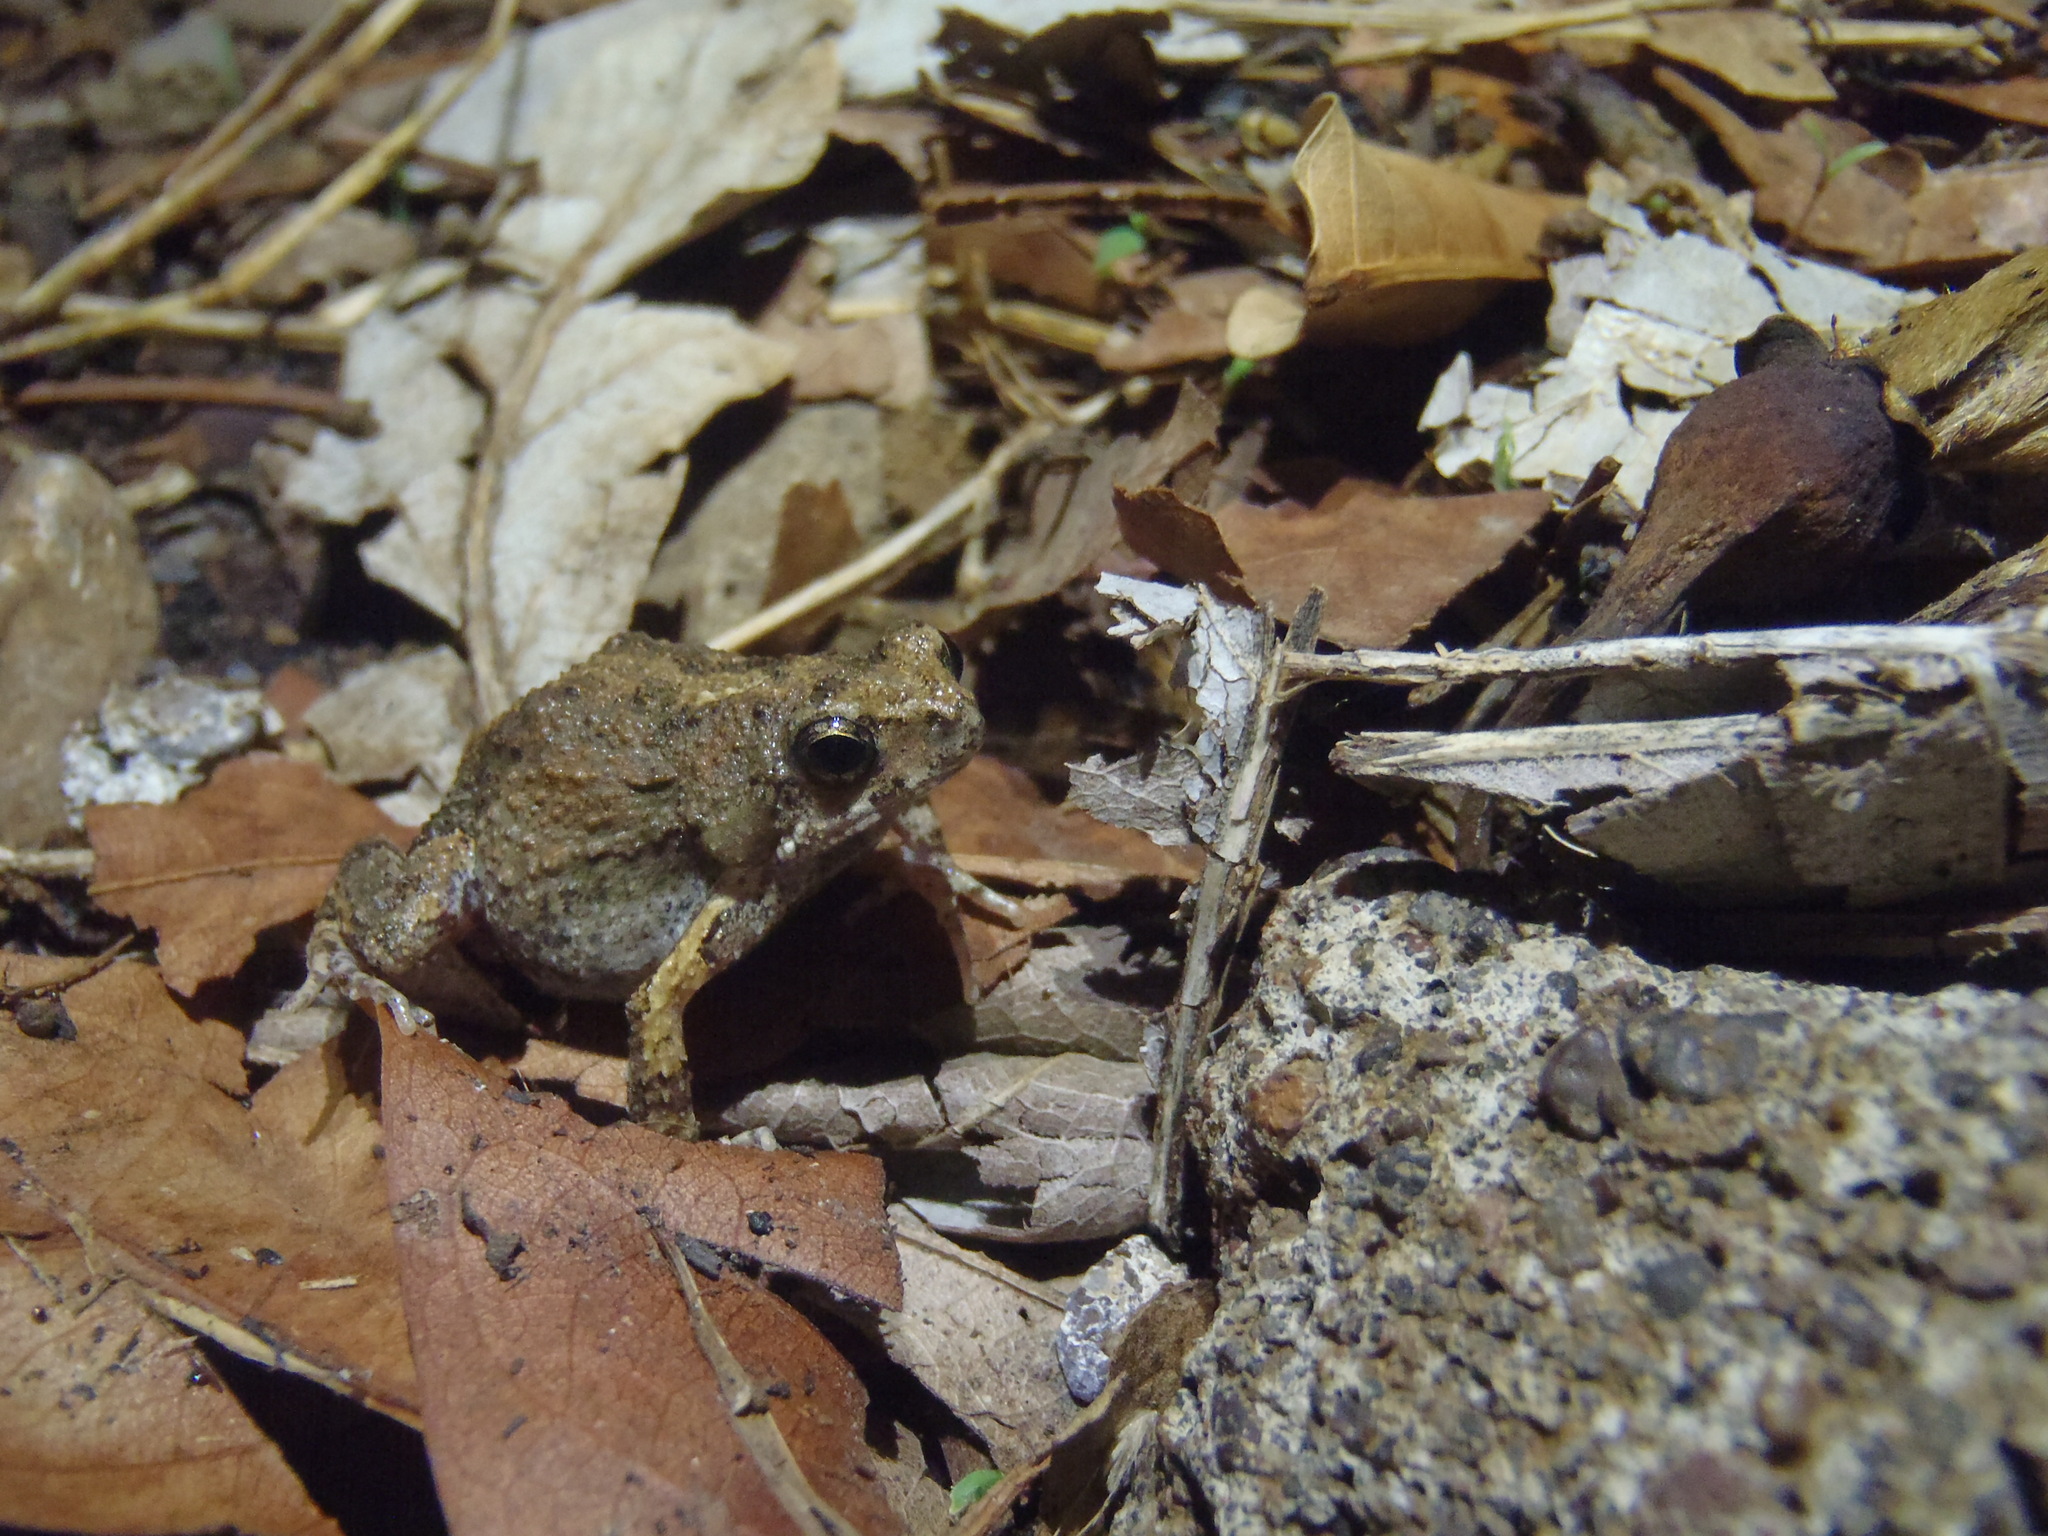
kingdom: Animalia
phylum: Chordata
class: Amphibia
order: Anura
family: Leptodactylidae
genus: Engystomops
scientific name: Engystomops pustulosus
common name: Tungara frog
